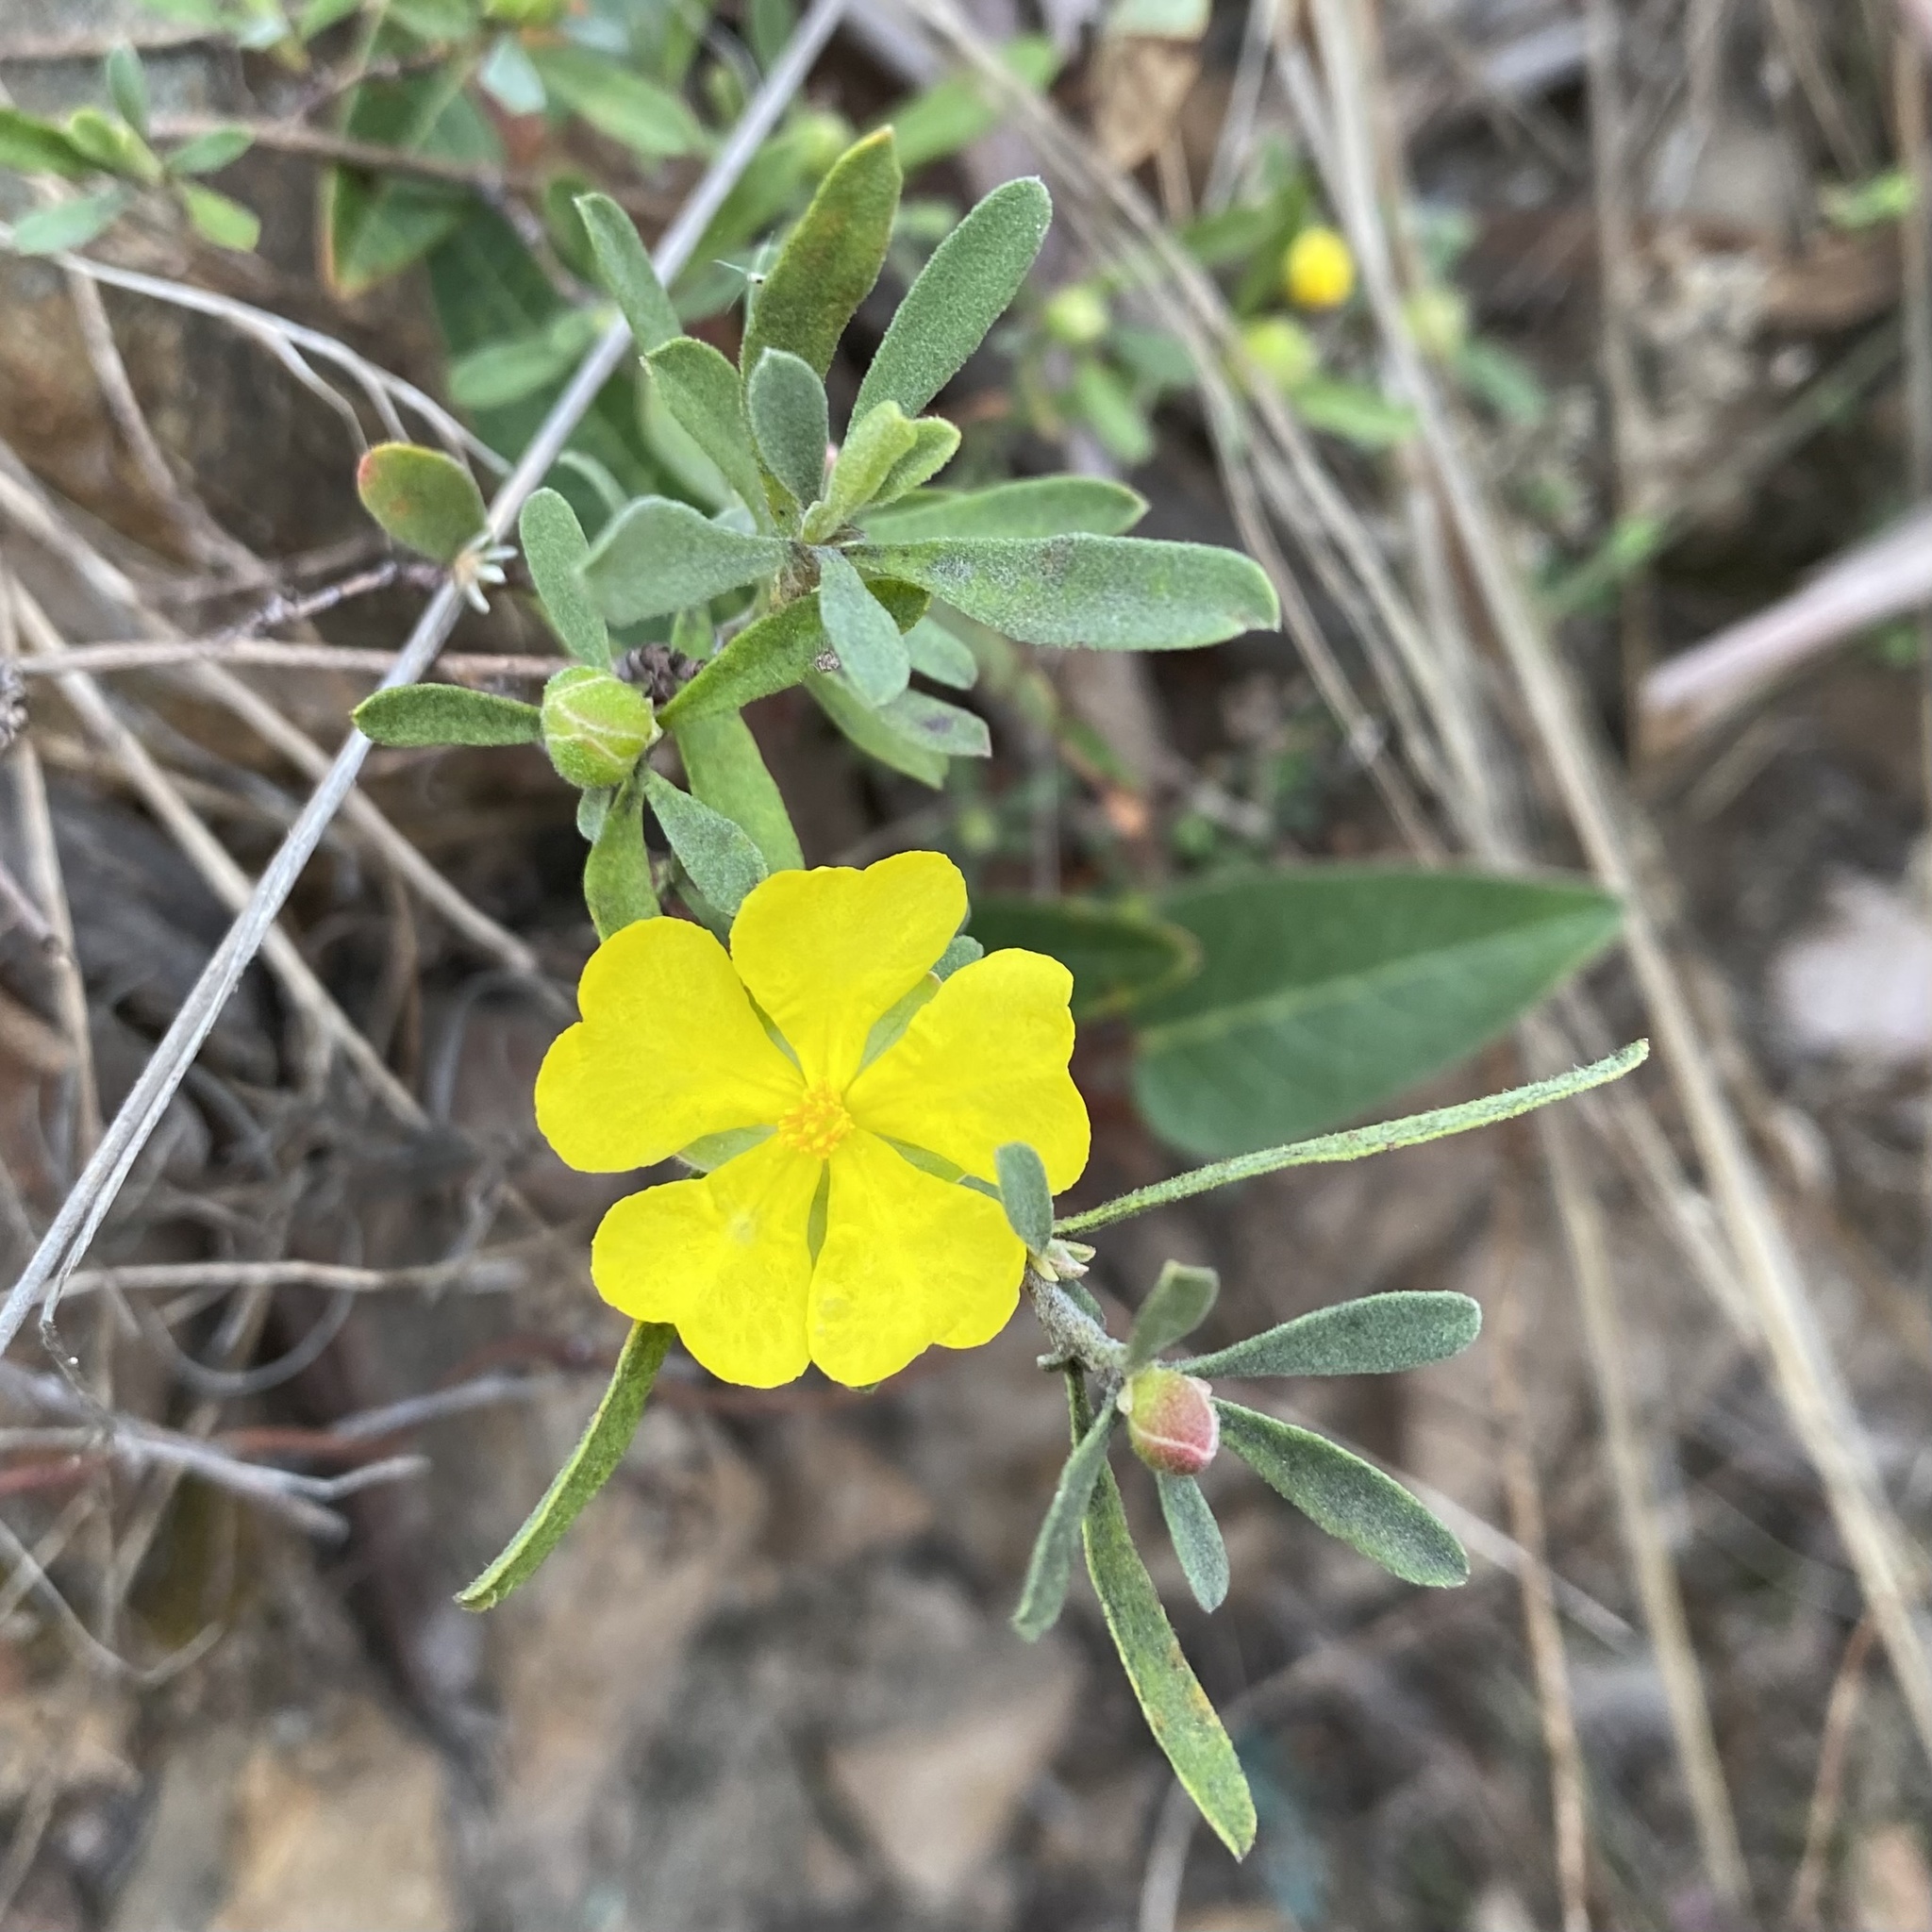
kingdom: Plantae
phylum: Tracheophyta
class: Magnoliopsida
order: Dilleniales
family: Dilleniaceae
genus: Hibbertia
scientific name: Hibbertia obtusifolia
